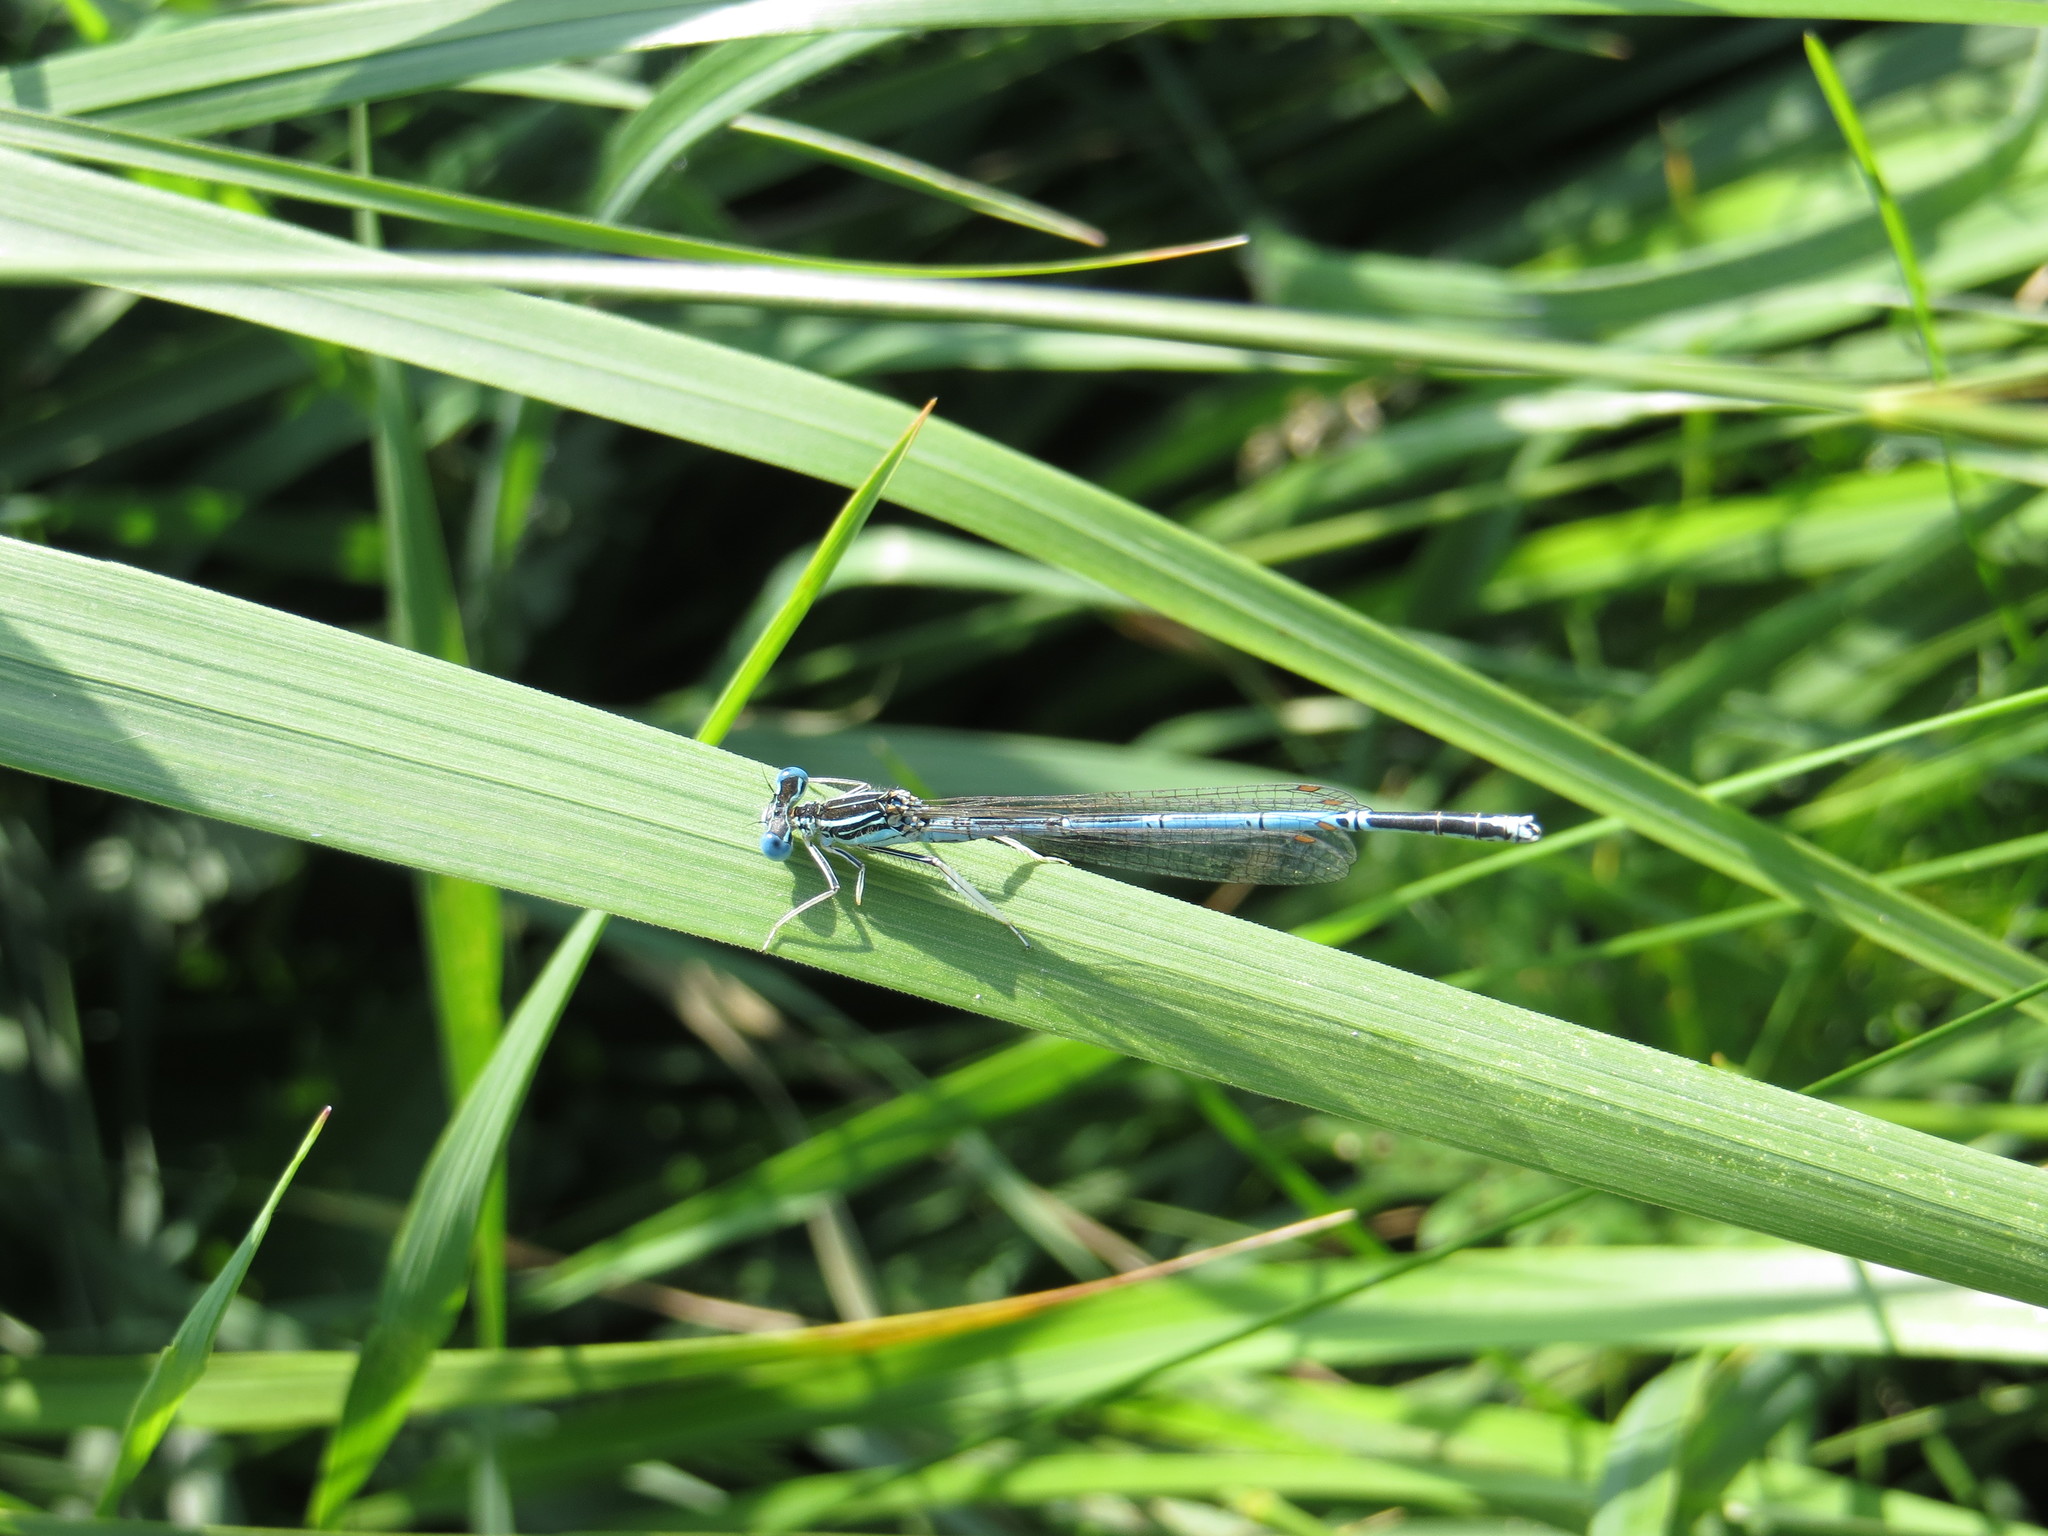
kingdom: Animalia
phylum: Arthropoda
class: Insecta
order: Odonata
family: Platycnemididae
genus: Platycnemis
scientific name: Platycnemis pennipes
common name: White-legged damselfly
